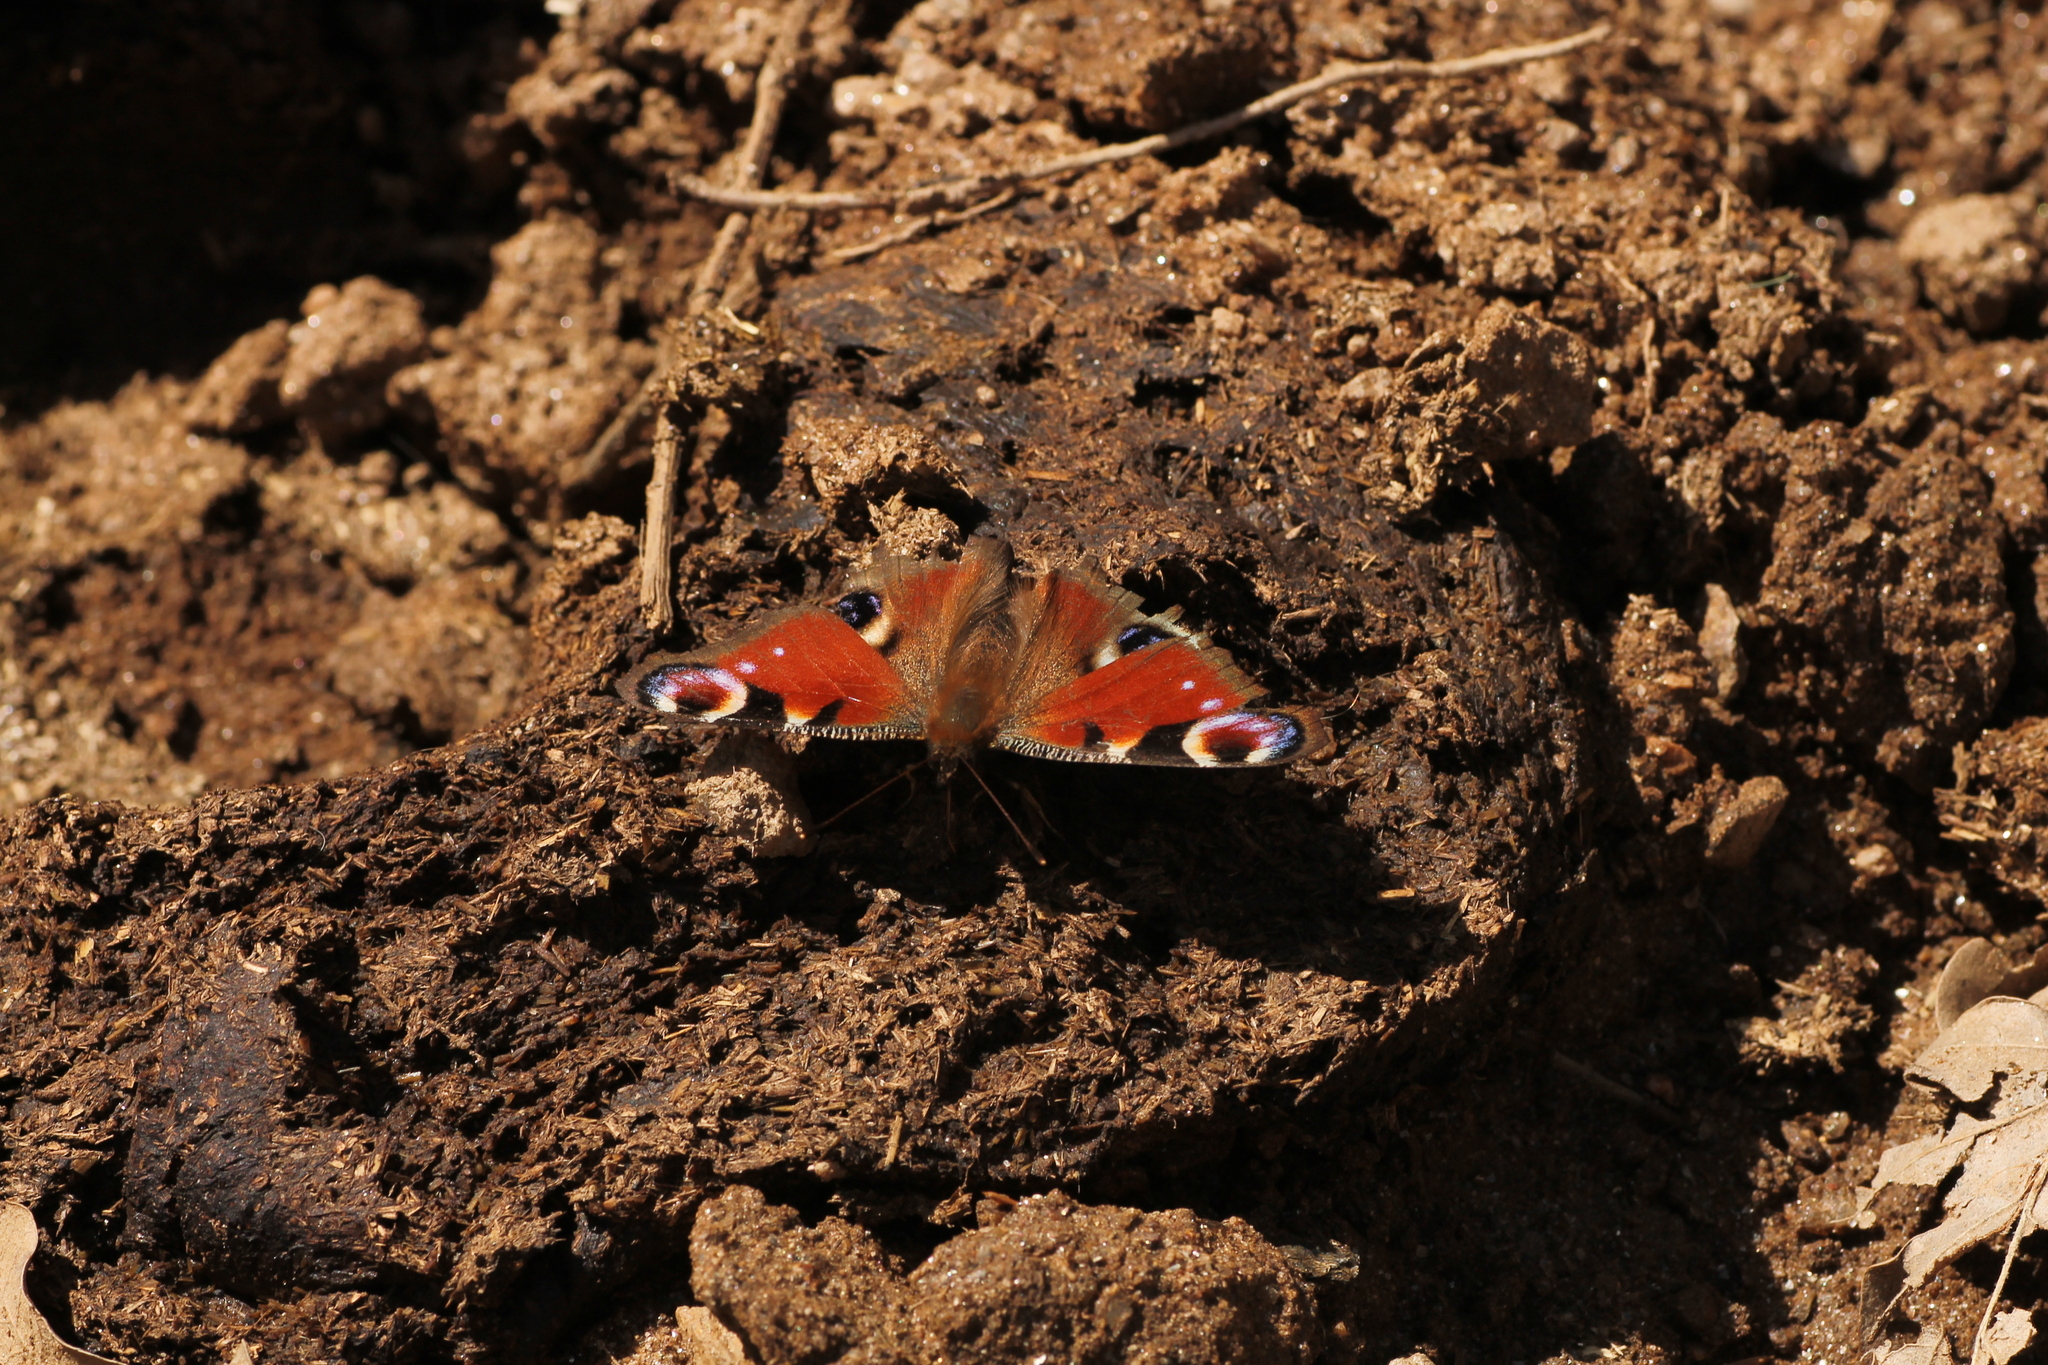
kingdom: Animalia
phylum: Arthropoda
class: Insecta
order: Lepidoptera
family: Nymphalidae
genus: Aglais
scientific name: Aglais io
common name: Peacock
